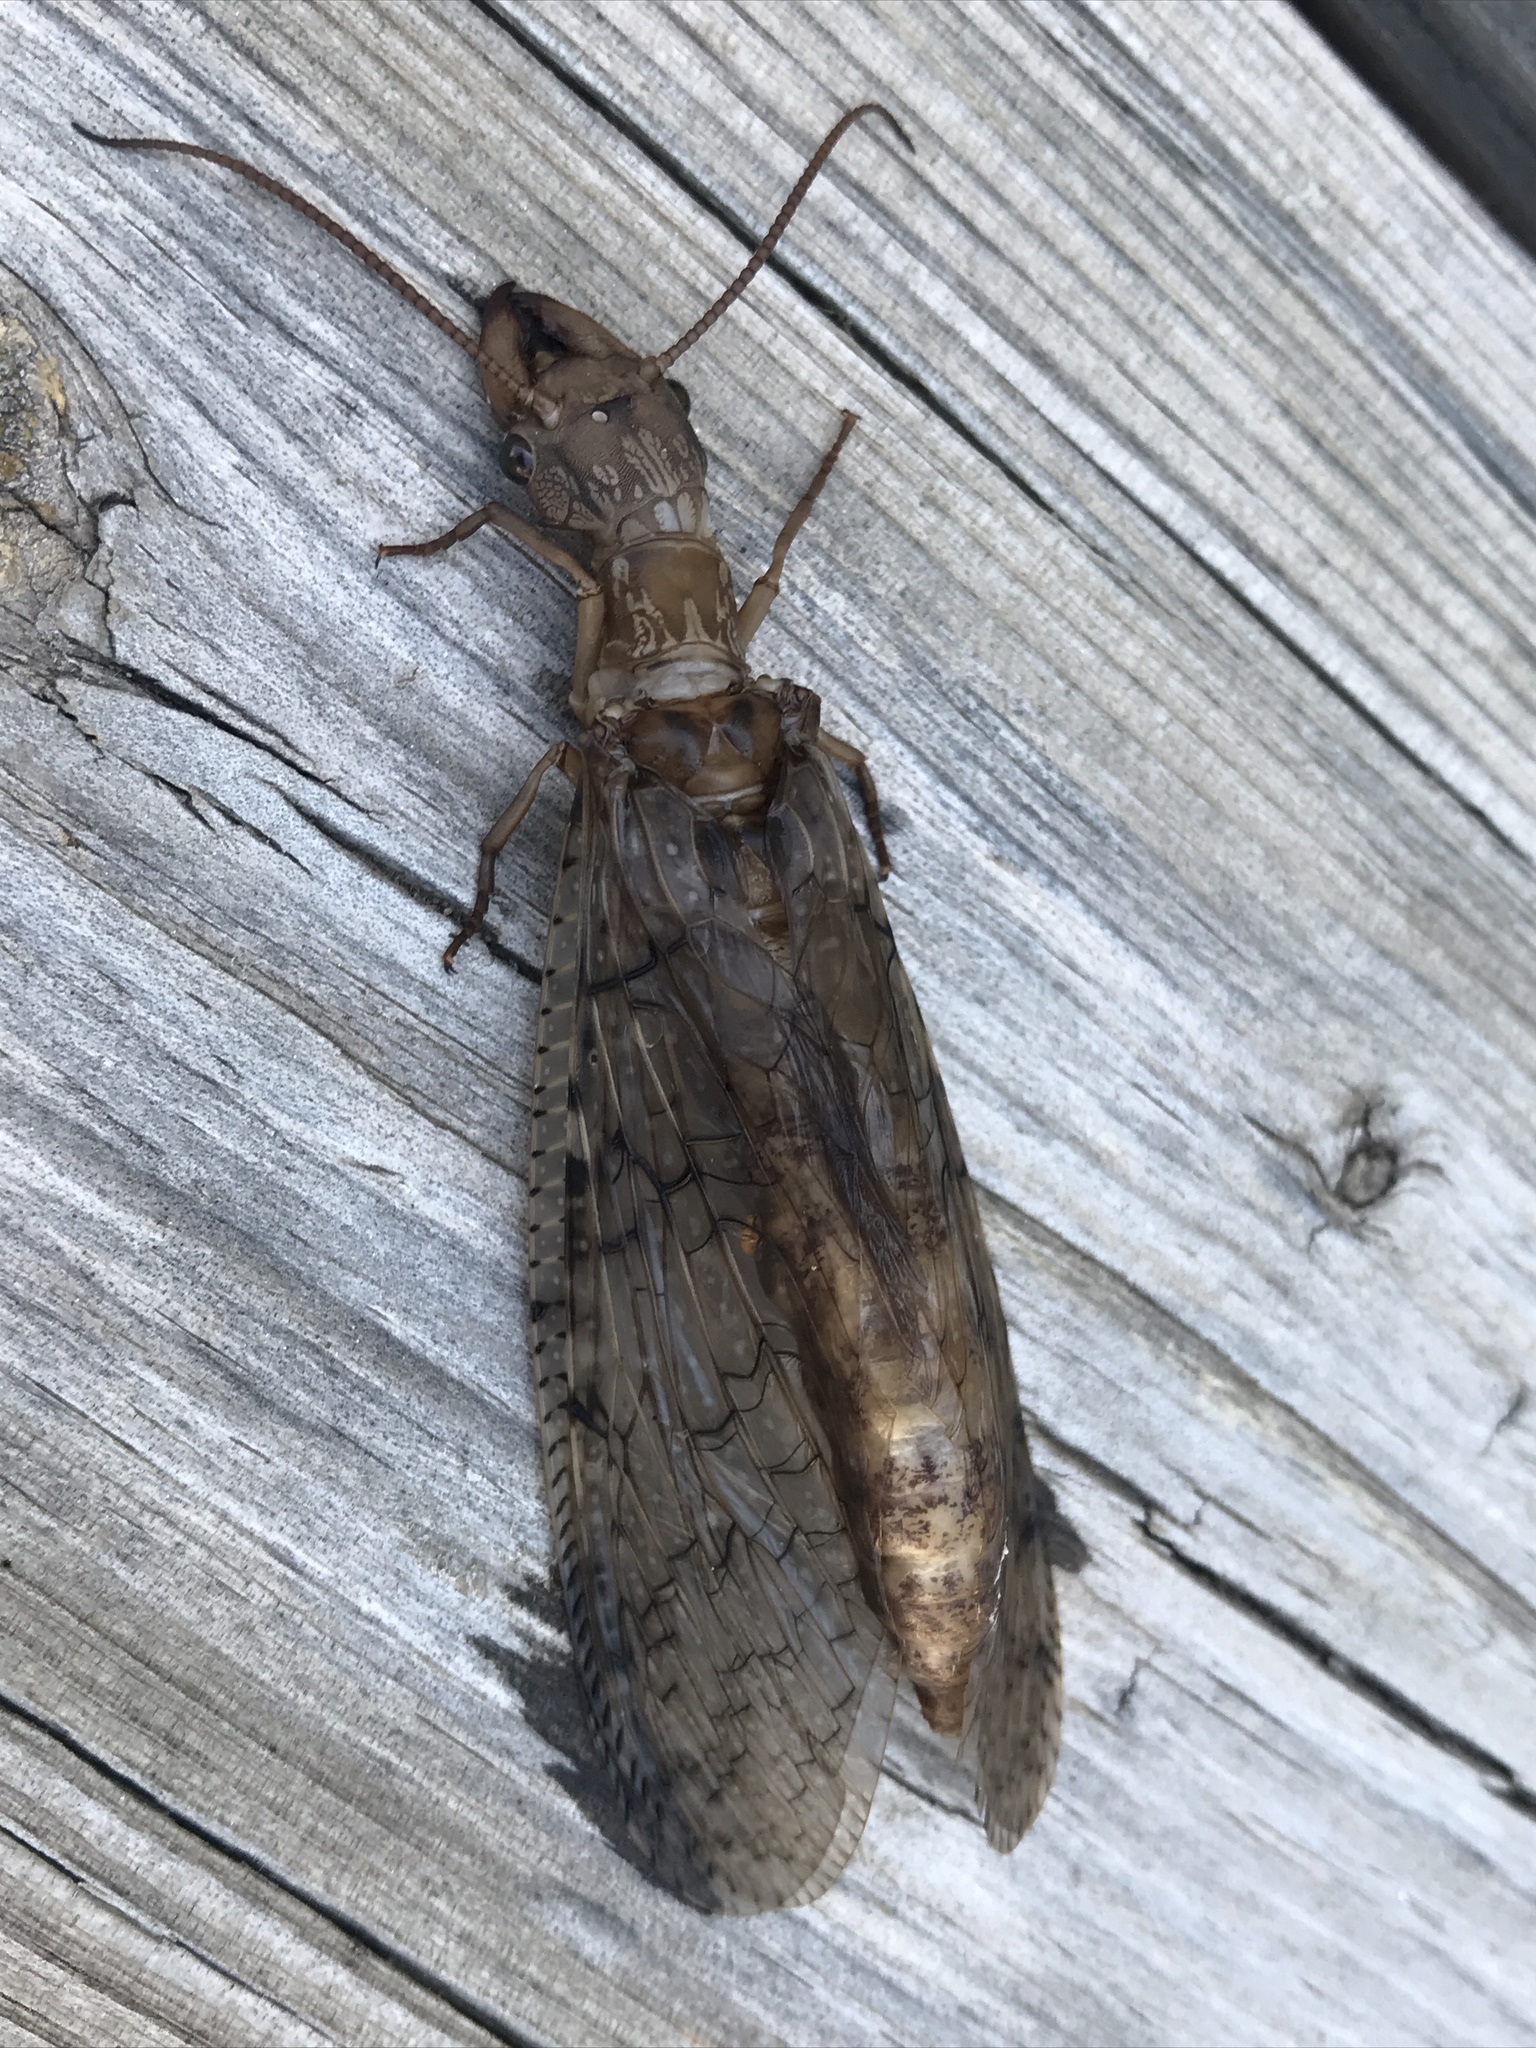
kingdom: Animalia
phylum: Arthropoda
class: Insecta
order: Megaloptera
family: Corydalidae
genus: Corydalus
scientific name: Corydalus cornutus
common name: Dobsonfly
